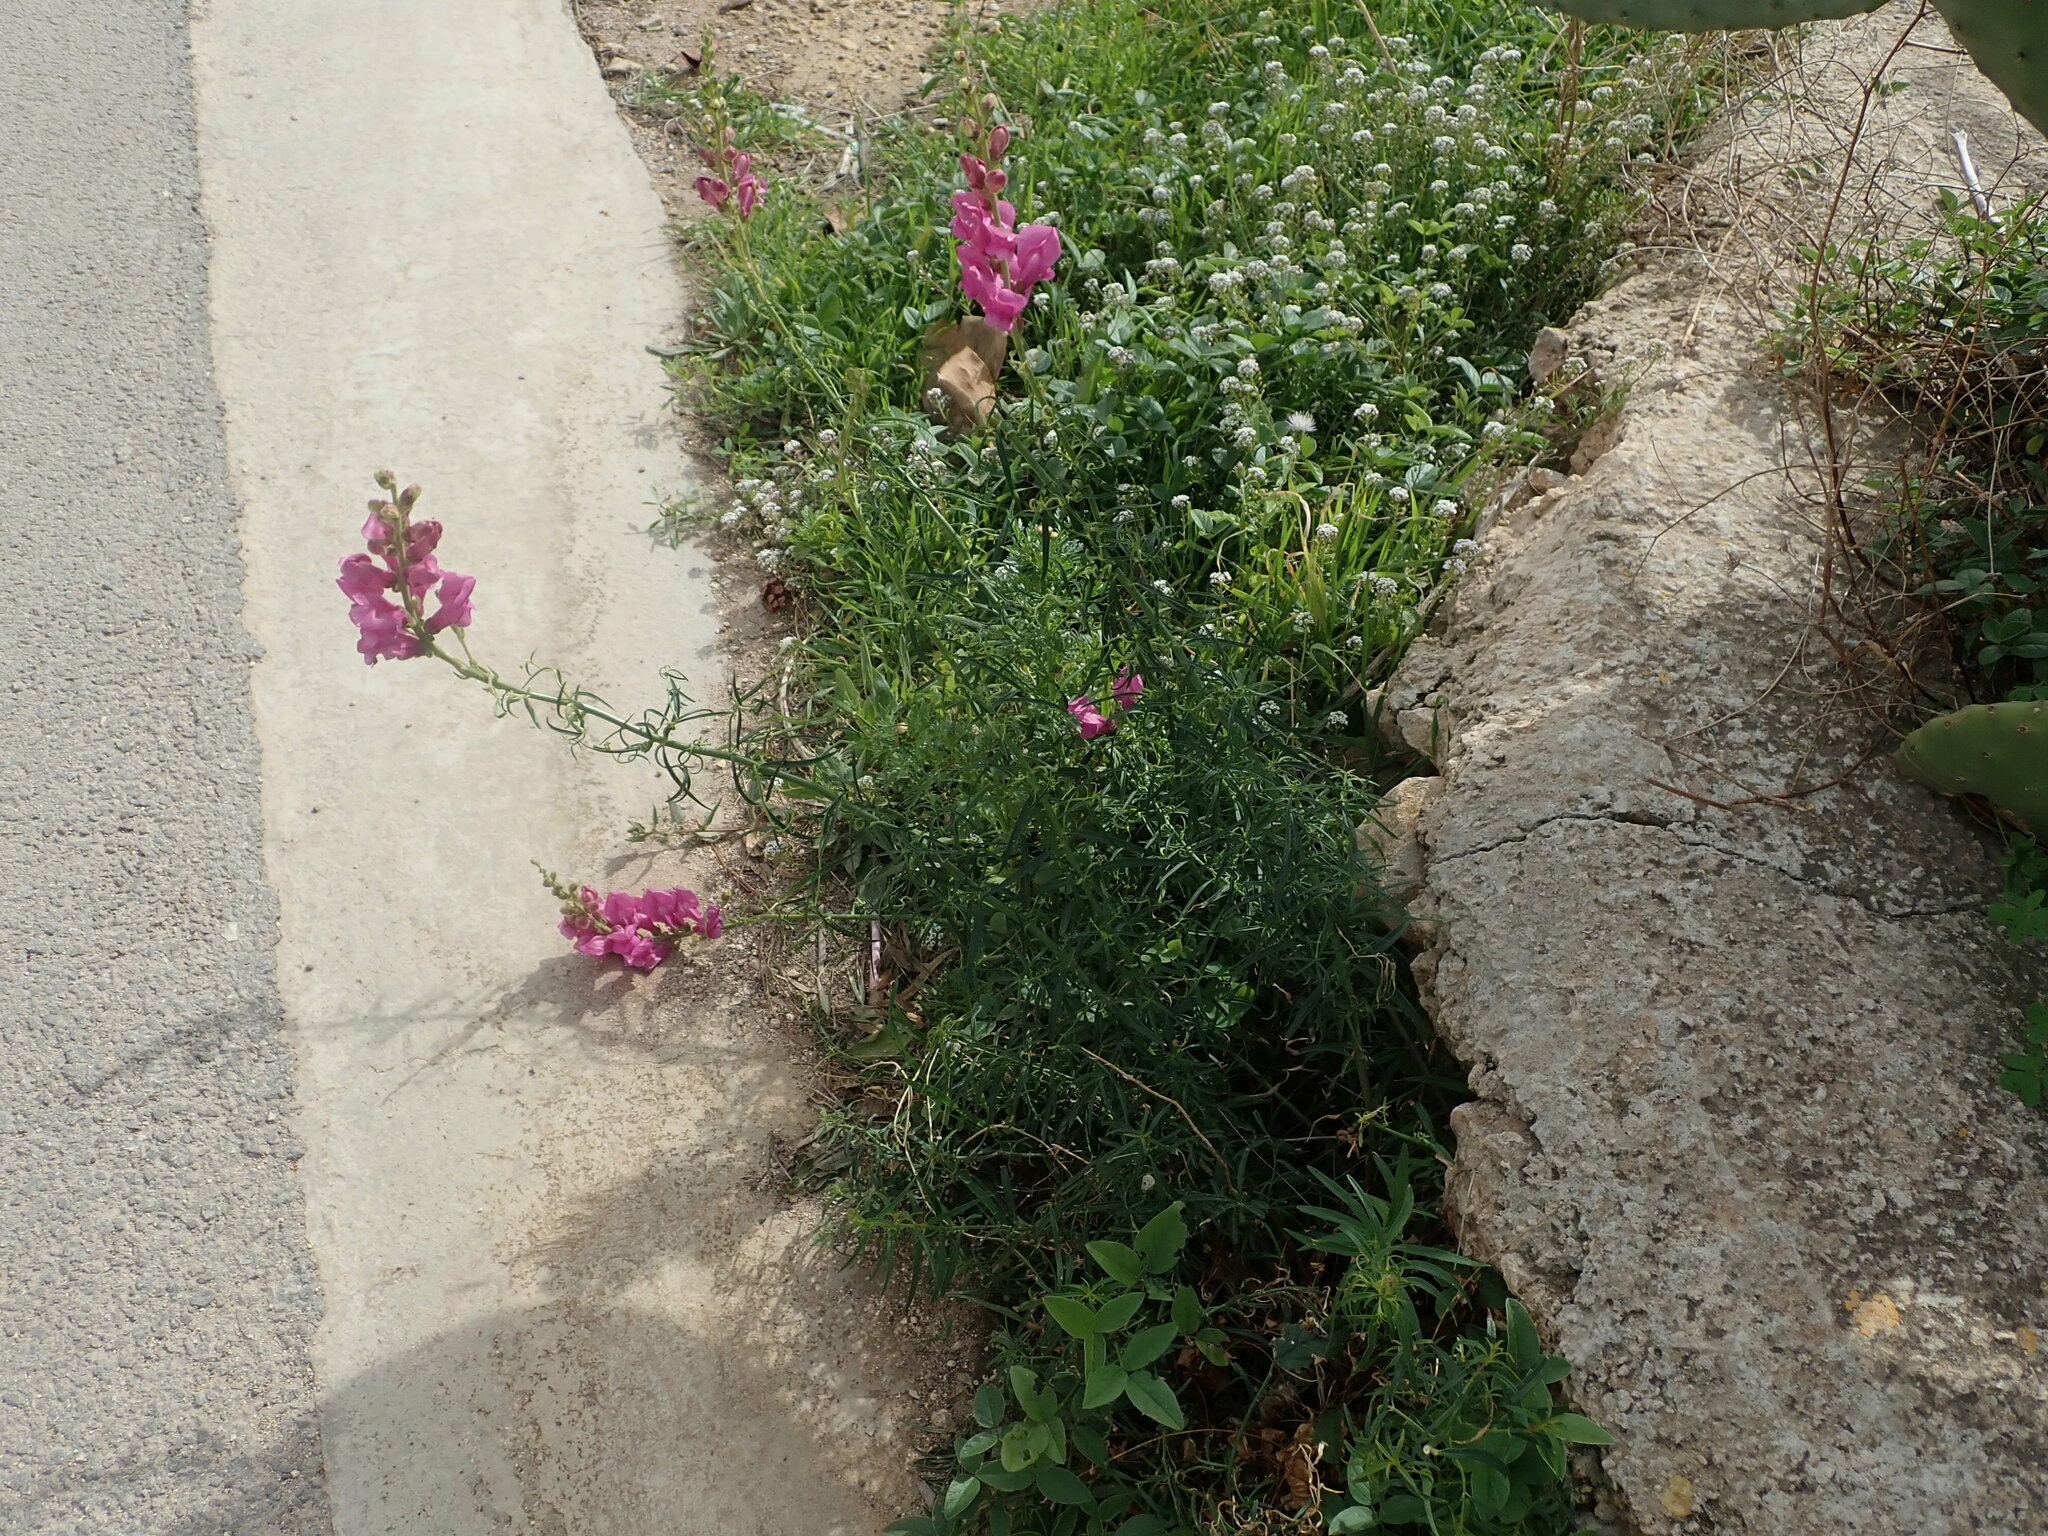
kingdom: Plantae
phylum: Tracheophyta
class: Magnoliopsida
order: Lamiales
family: Plantaginaceae
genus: Antirrhinum
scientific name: Antirrhinum tortuosum
